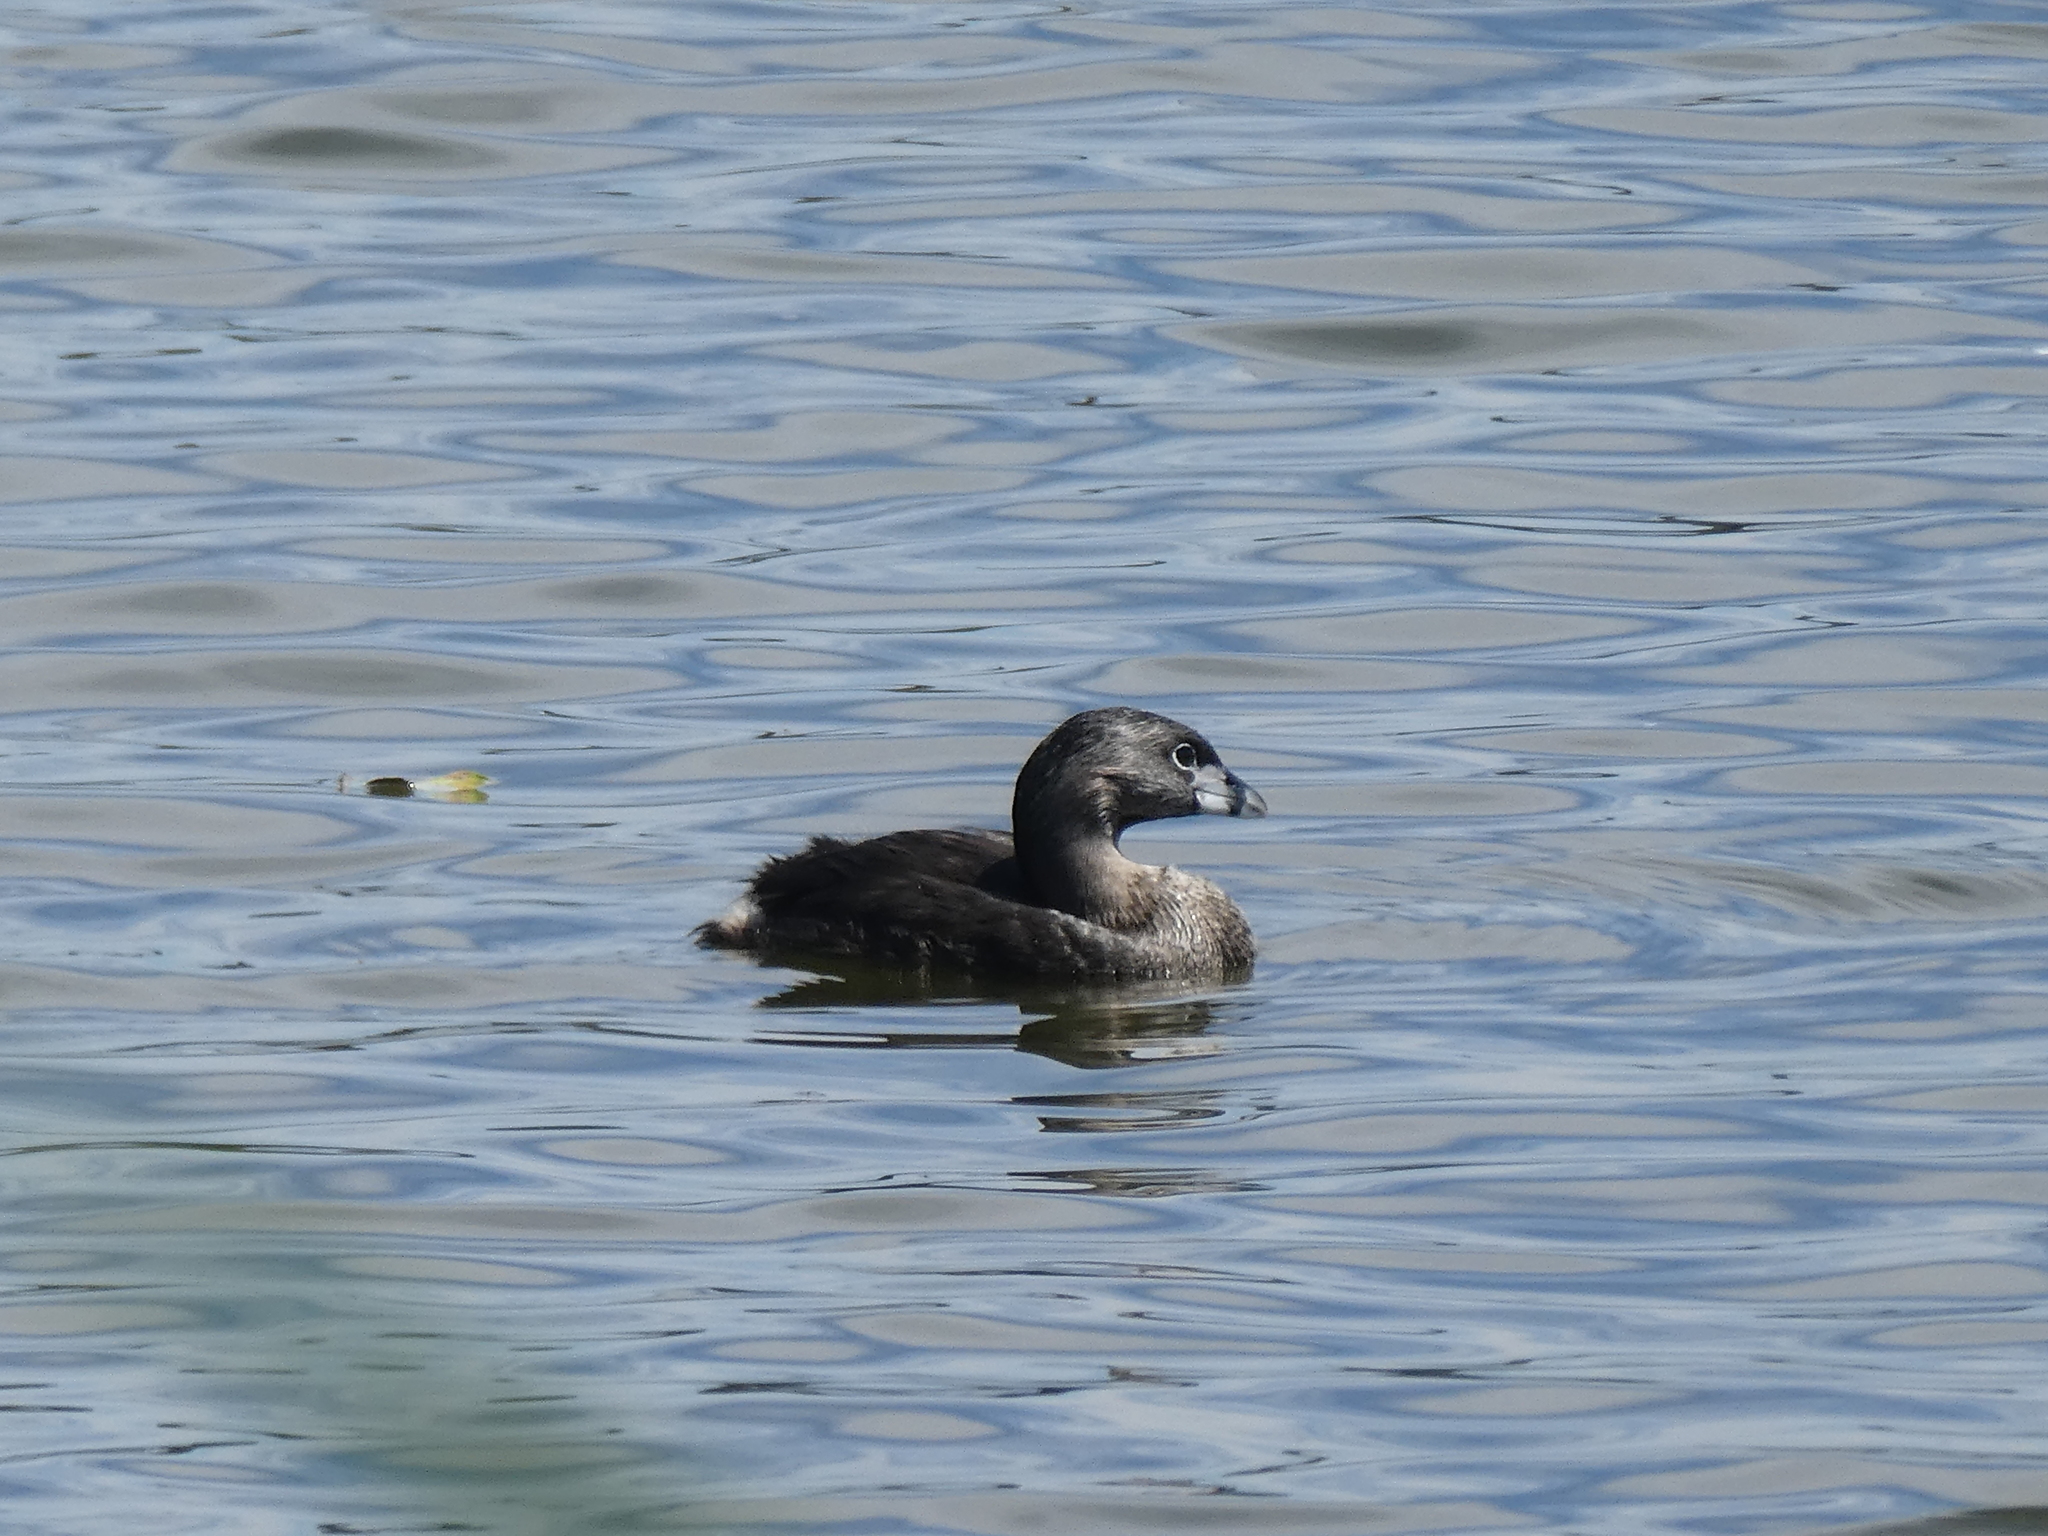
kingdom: Animalia
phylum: Chordata
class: Aves
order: Podicipediformes
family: Podicipedidae
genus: Podilymbus
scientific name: Podilymbus podiceps
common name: Pied-billed grebe
